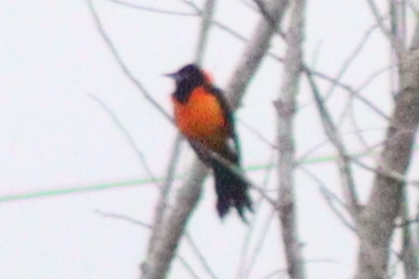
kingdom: Animalia
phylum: Chordata
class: Aves
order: Passeriformes
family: Icteridae
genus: Icterus
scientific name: Icterus icterus
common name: Venezuelan troupial
